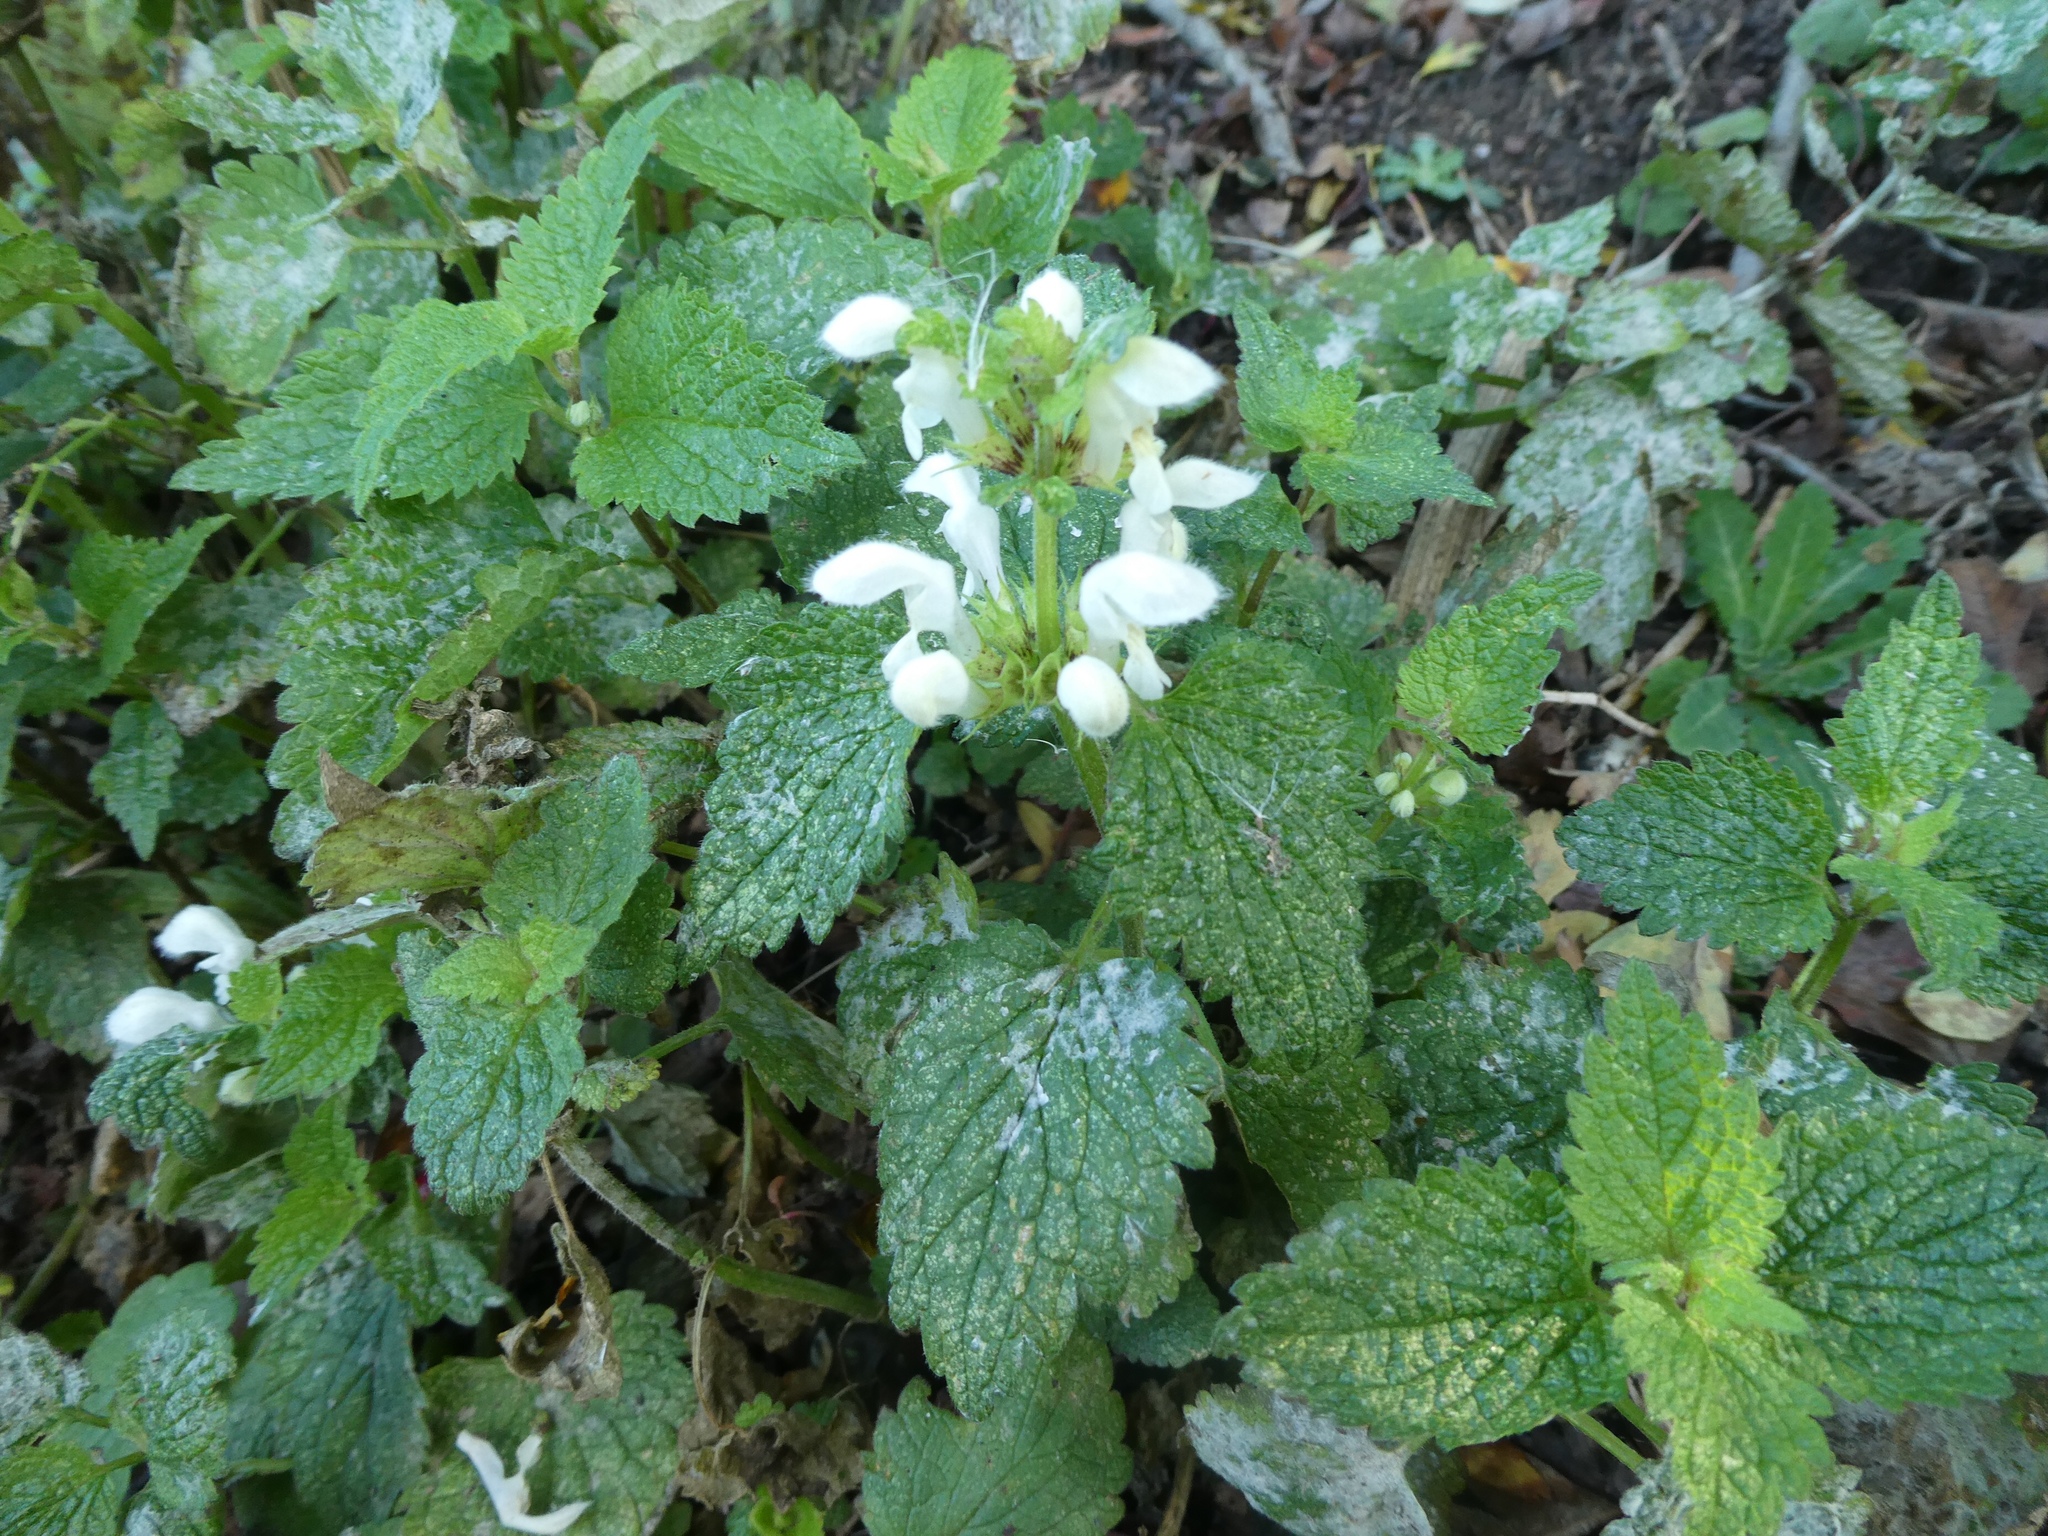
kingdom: Plantae
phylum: Tracheophyta
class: Magnoliopsida
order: Lamiales
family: Lamiaceae
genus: Lamium
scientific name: Lamium album
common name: White dead-nettle
